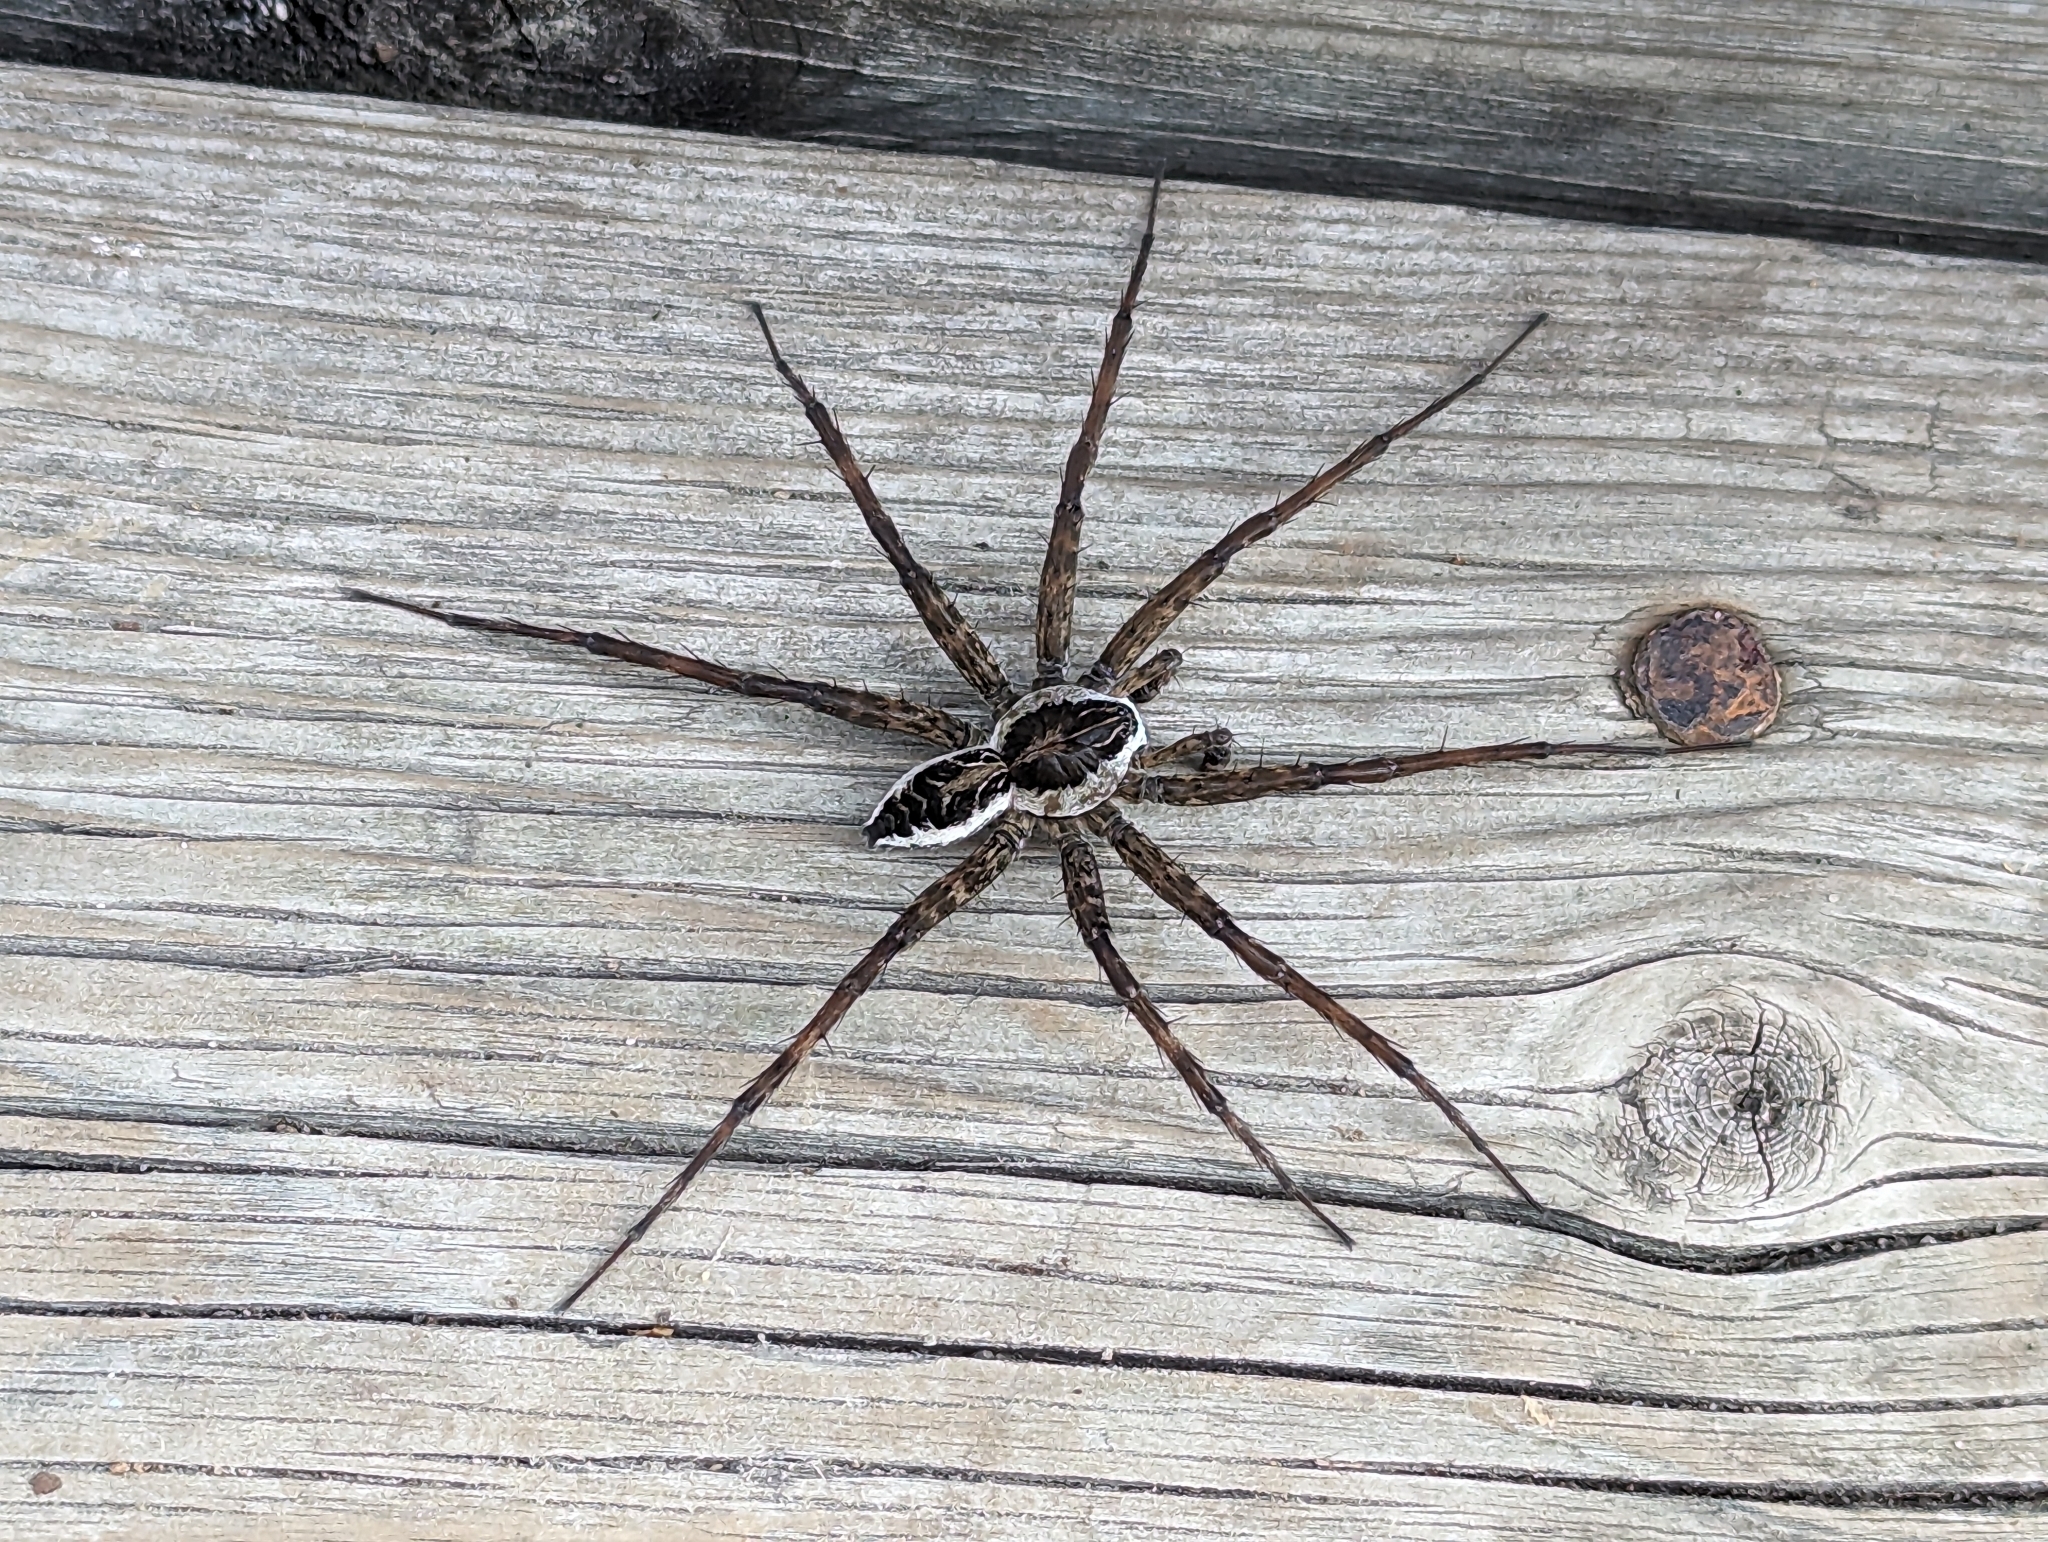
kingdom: Animalia
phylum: Arthropoda
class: Arachnida
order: Araneae
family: Pisauridae
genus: Dolomedes
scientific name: Dolomedes scriptus
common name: Striped fishing spider
